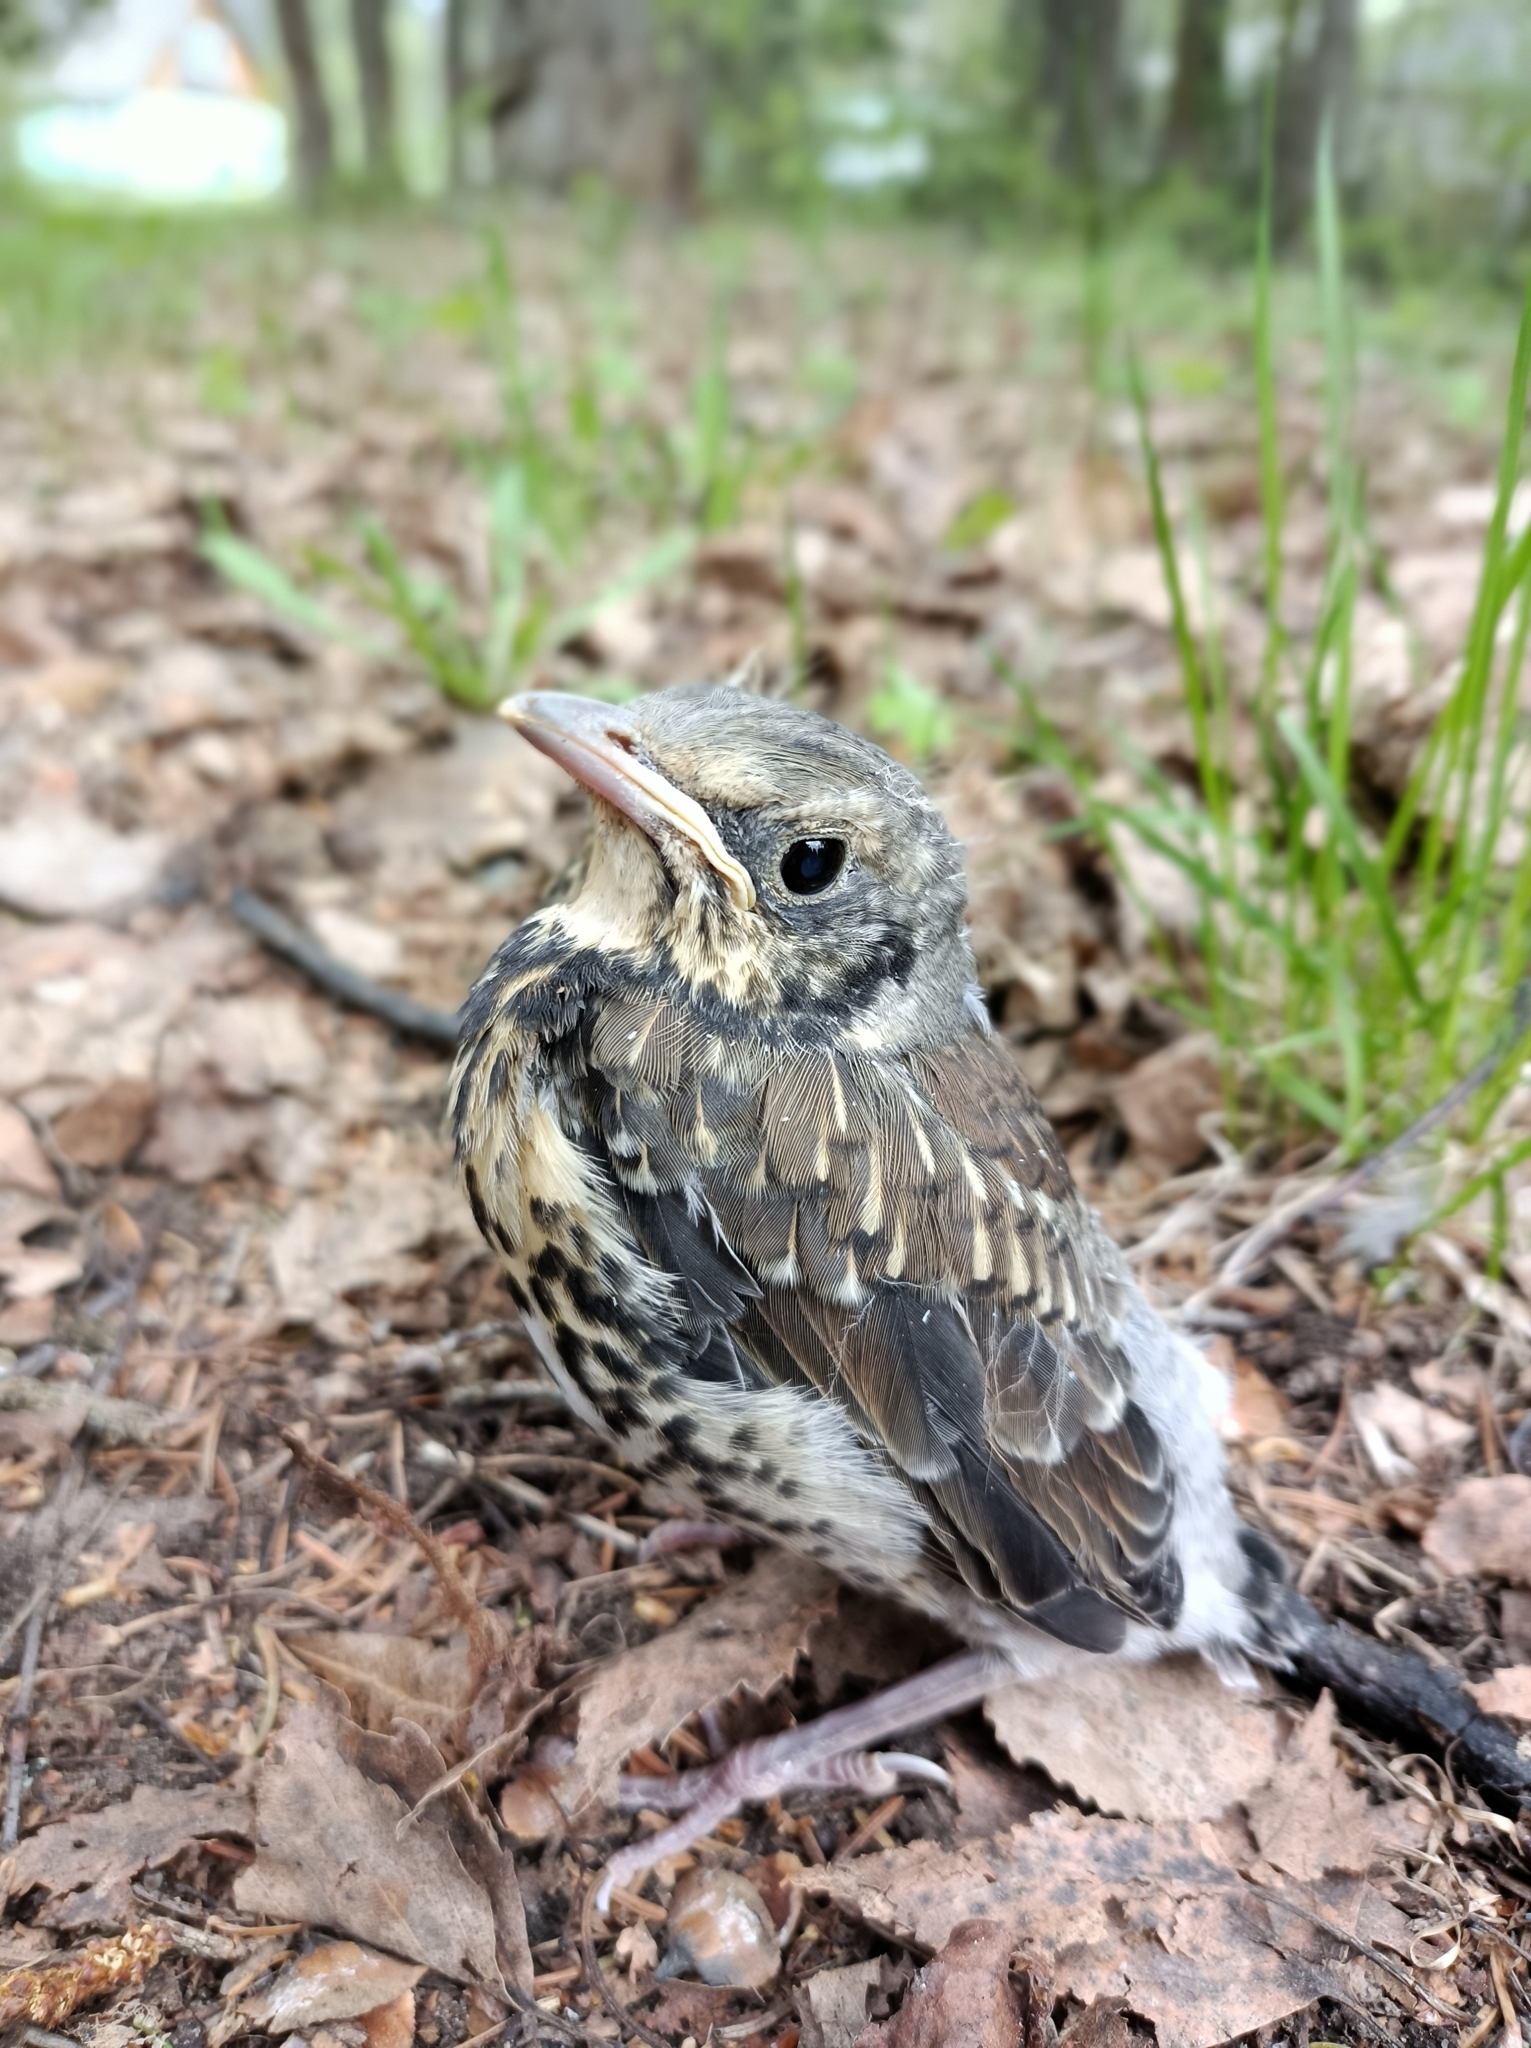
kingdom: Animalia
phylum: Chordata
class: Aves
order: Passeriformes
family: Turdidae
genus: Turdus
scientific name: Turdus pilaris
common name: Fieldfare
